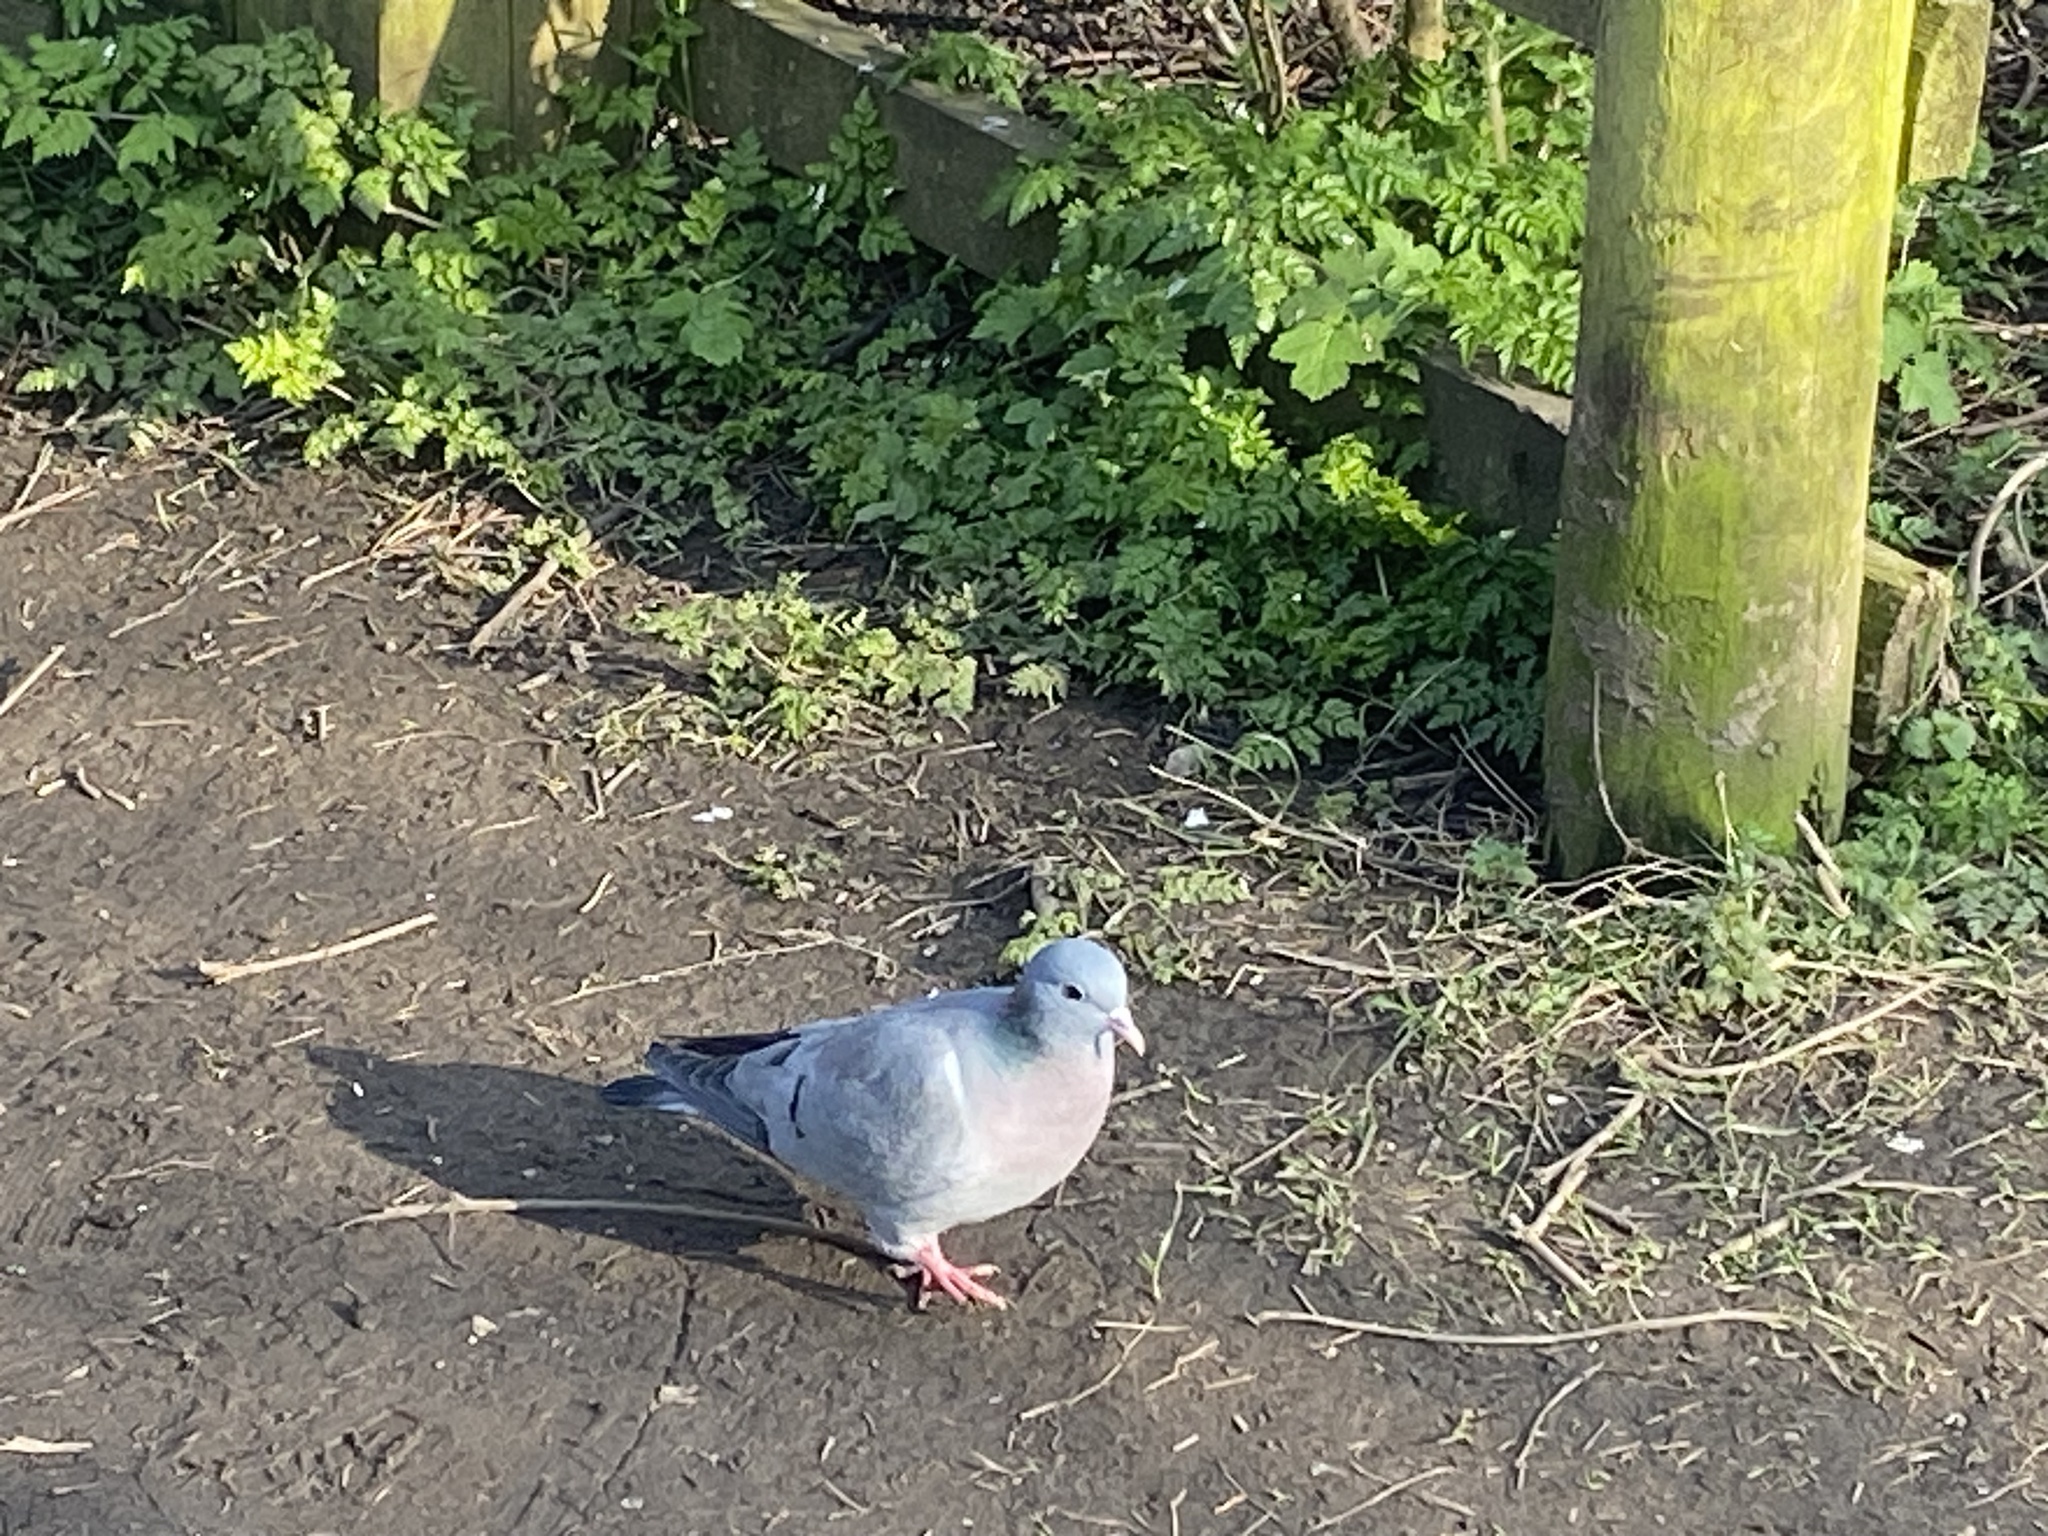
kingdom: Animalia
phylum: Chordata
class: Aves
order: Columbiformes
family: Columbidae
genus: Columba
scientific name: Columba oenas
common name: Stock dove
